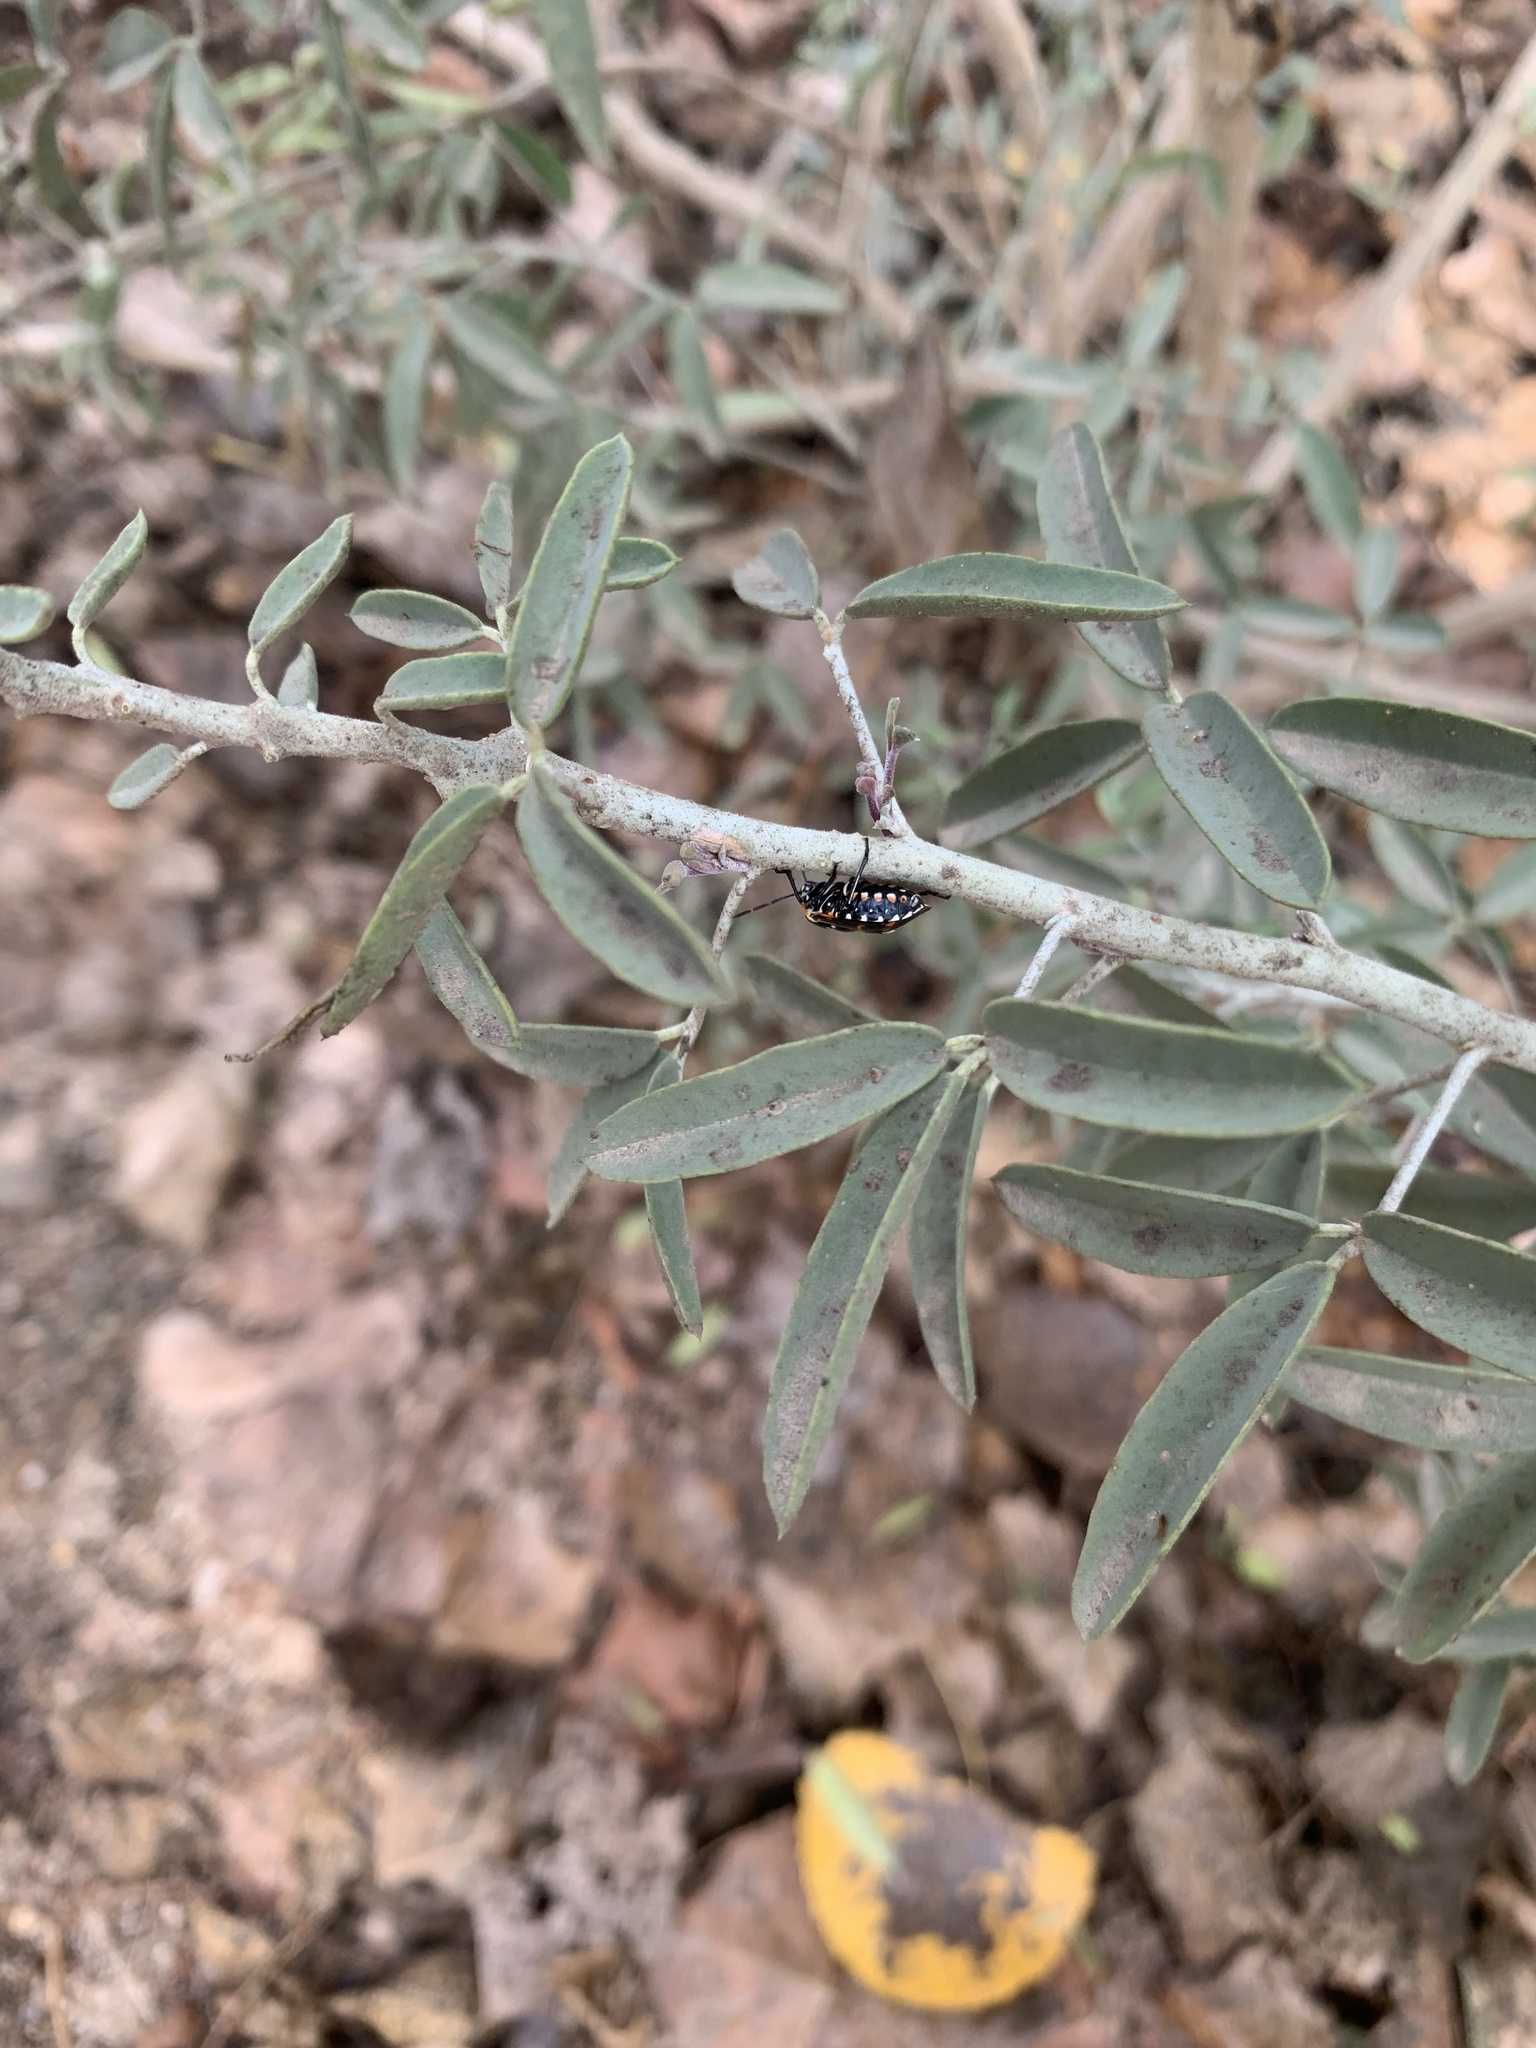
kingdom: Plantae
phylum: Tracheophyta
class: Magnoliopsida
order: Brassicales
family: Cleomaceae
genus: Cleomella
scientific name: Cleomella arborea
